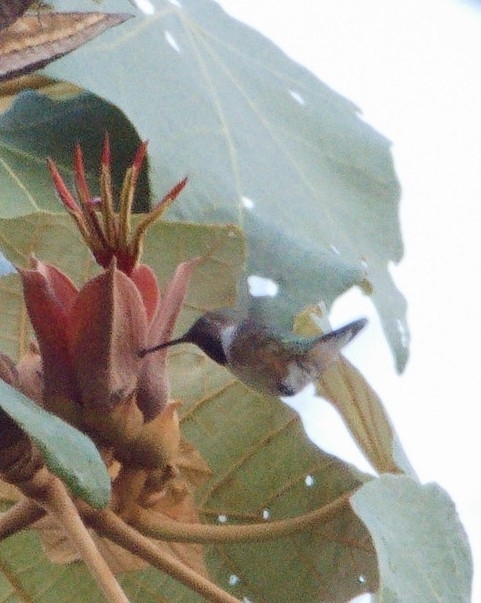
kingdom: Animalia
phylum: Chordata
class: Aves
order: Apodiformes
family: Trochilidae
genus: Selasphorus
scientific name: Selasphorus heloisa
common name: Bumblebee hummingbird
